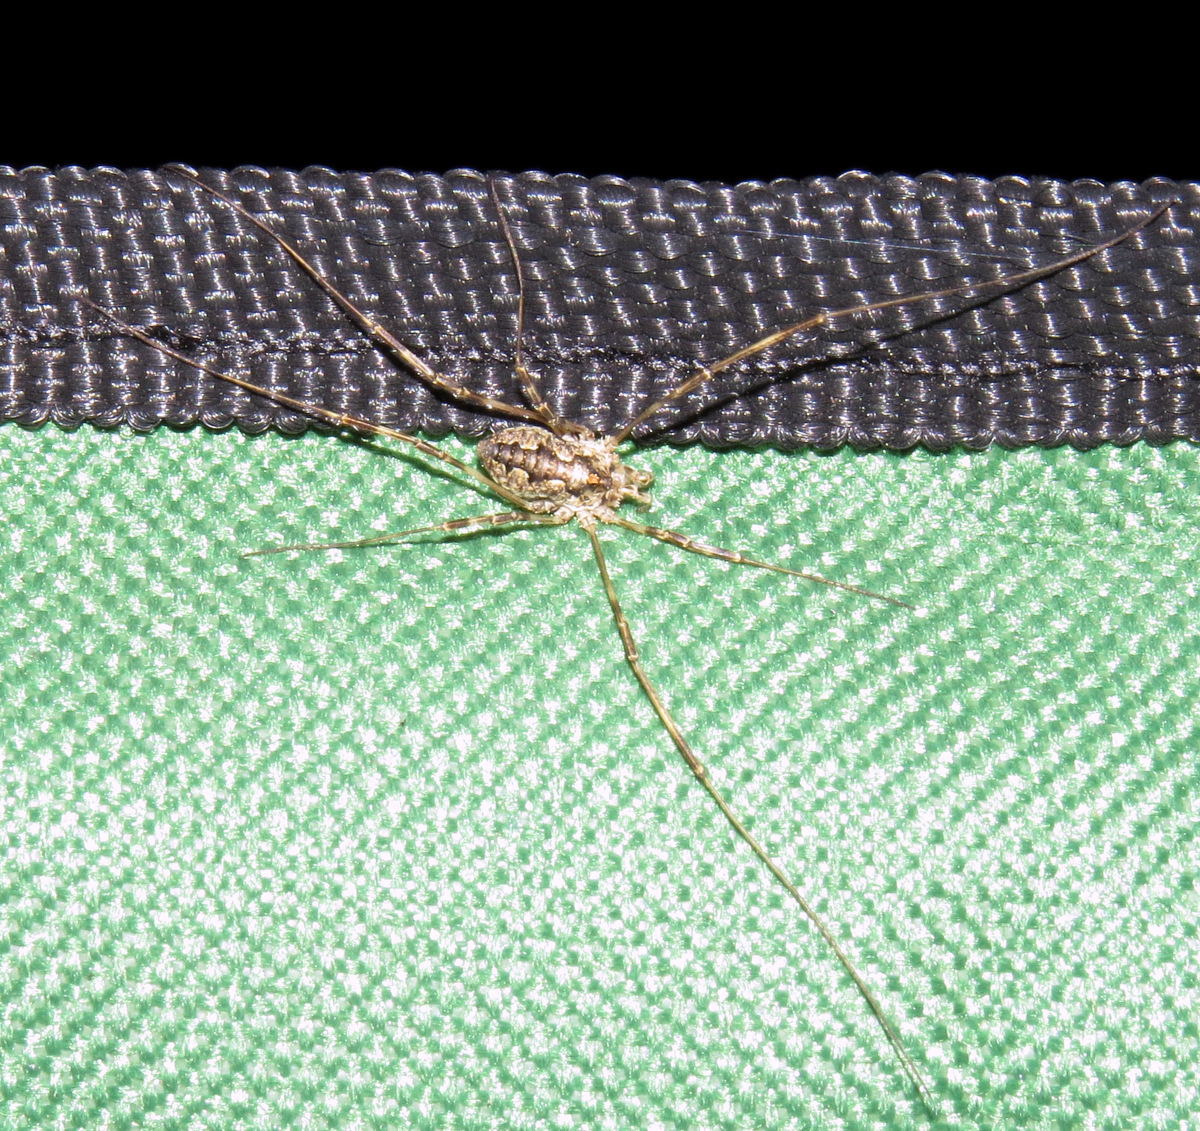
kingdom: Animalia
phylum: Arthropoda
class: Arachnida
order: Opiliones
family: Phalangiidae
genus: Odiellus
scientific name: Odiellus pictus
